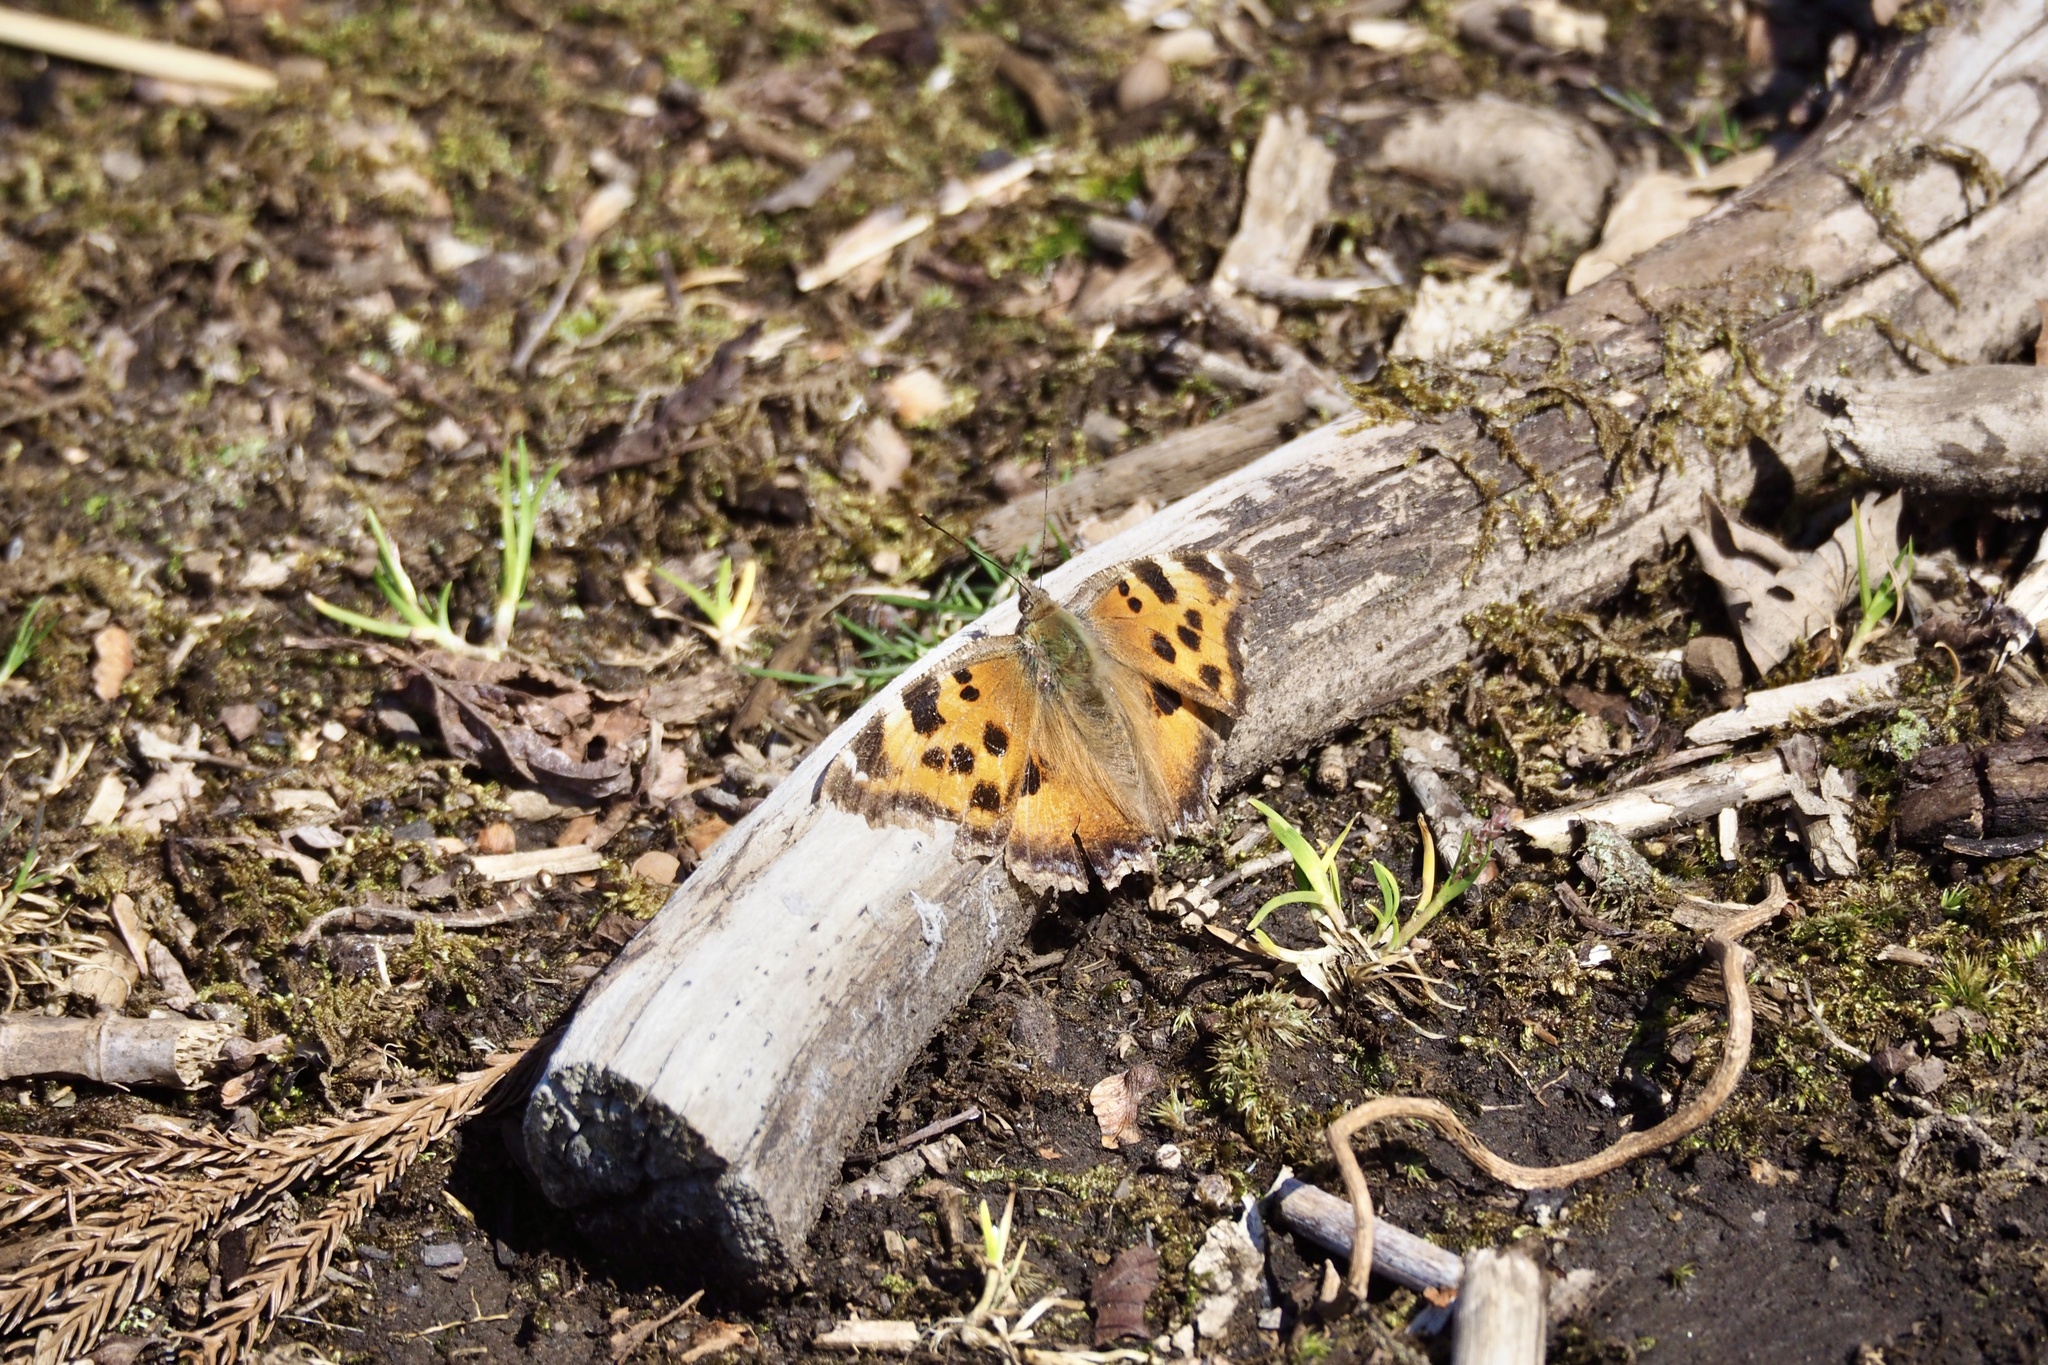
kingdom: Animalia
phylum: Arthropoda
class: Insecta
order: Lepidoptera
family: Nymphalidae
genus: Nymphalis
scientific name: Nymphalis xanthomelas
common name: Scarce tortoiseshell
